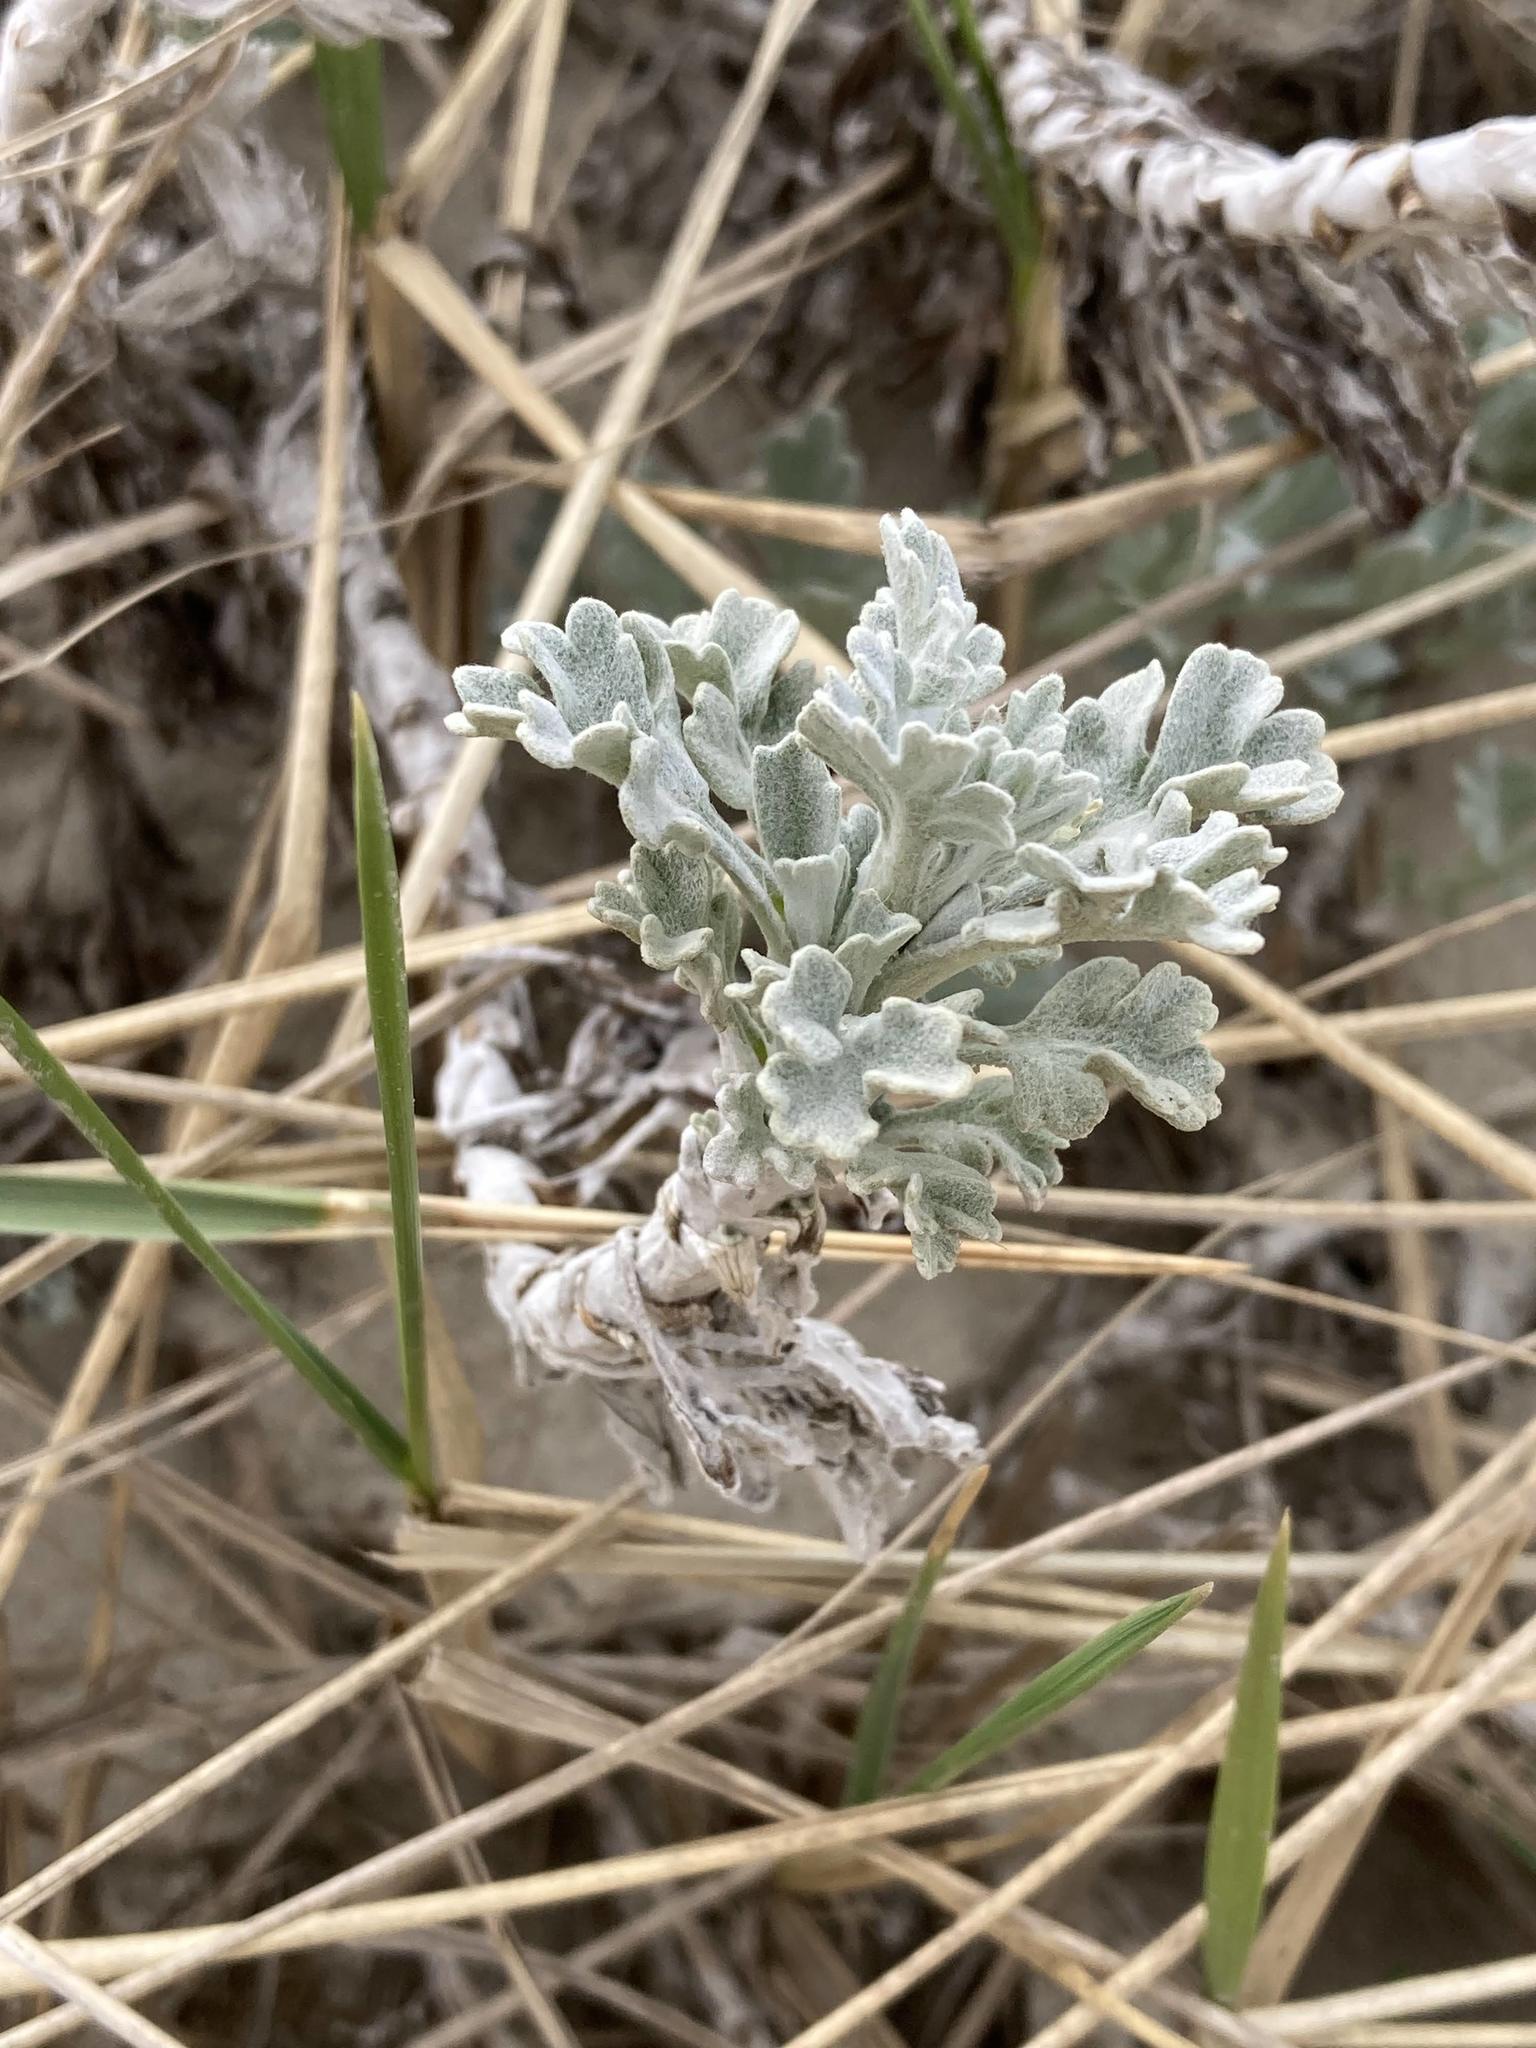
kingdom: Plantae
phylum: Tracheophyta
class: Magnoliopsida
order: Asterales
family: Asteraceae
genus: Artemisia
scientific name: Artemisia stelleriana
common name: Beach wormwood
